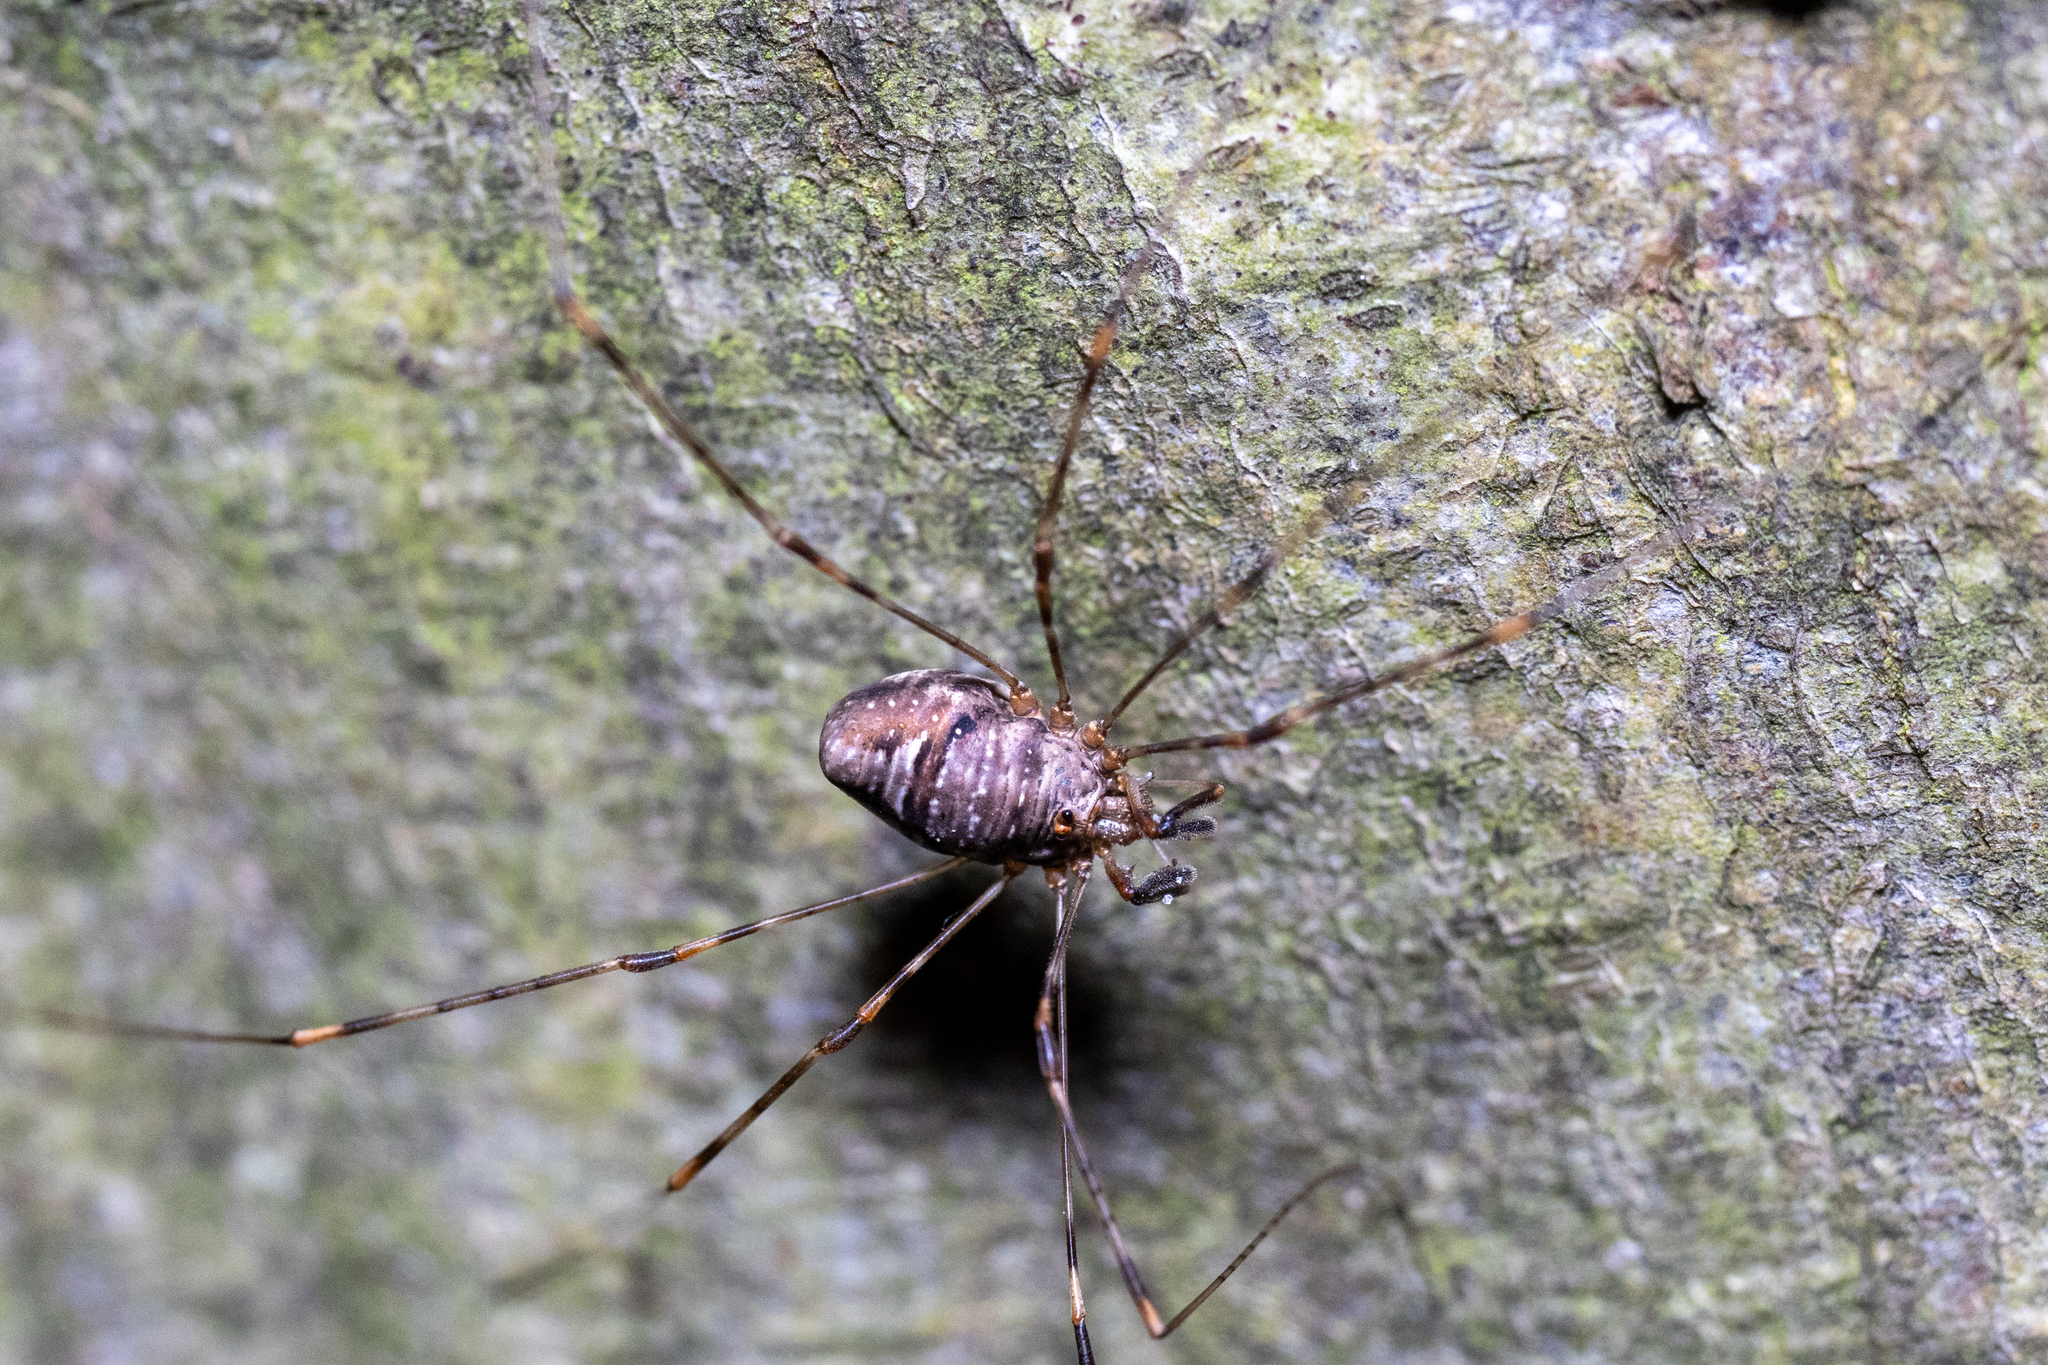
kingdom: Animalia
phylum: Arthropoda
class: Arachnida
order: Opiliones
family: Phalangiidae
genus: Dicranopalpus
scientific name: Dicranopalpus ramosus
